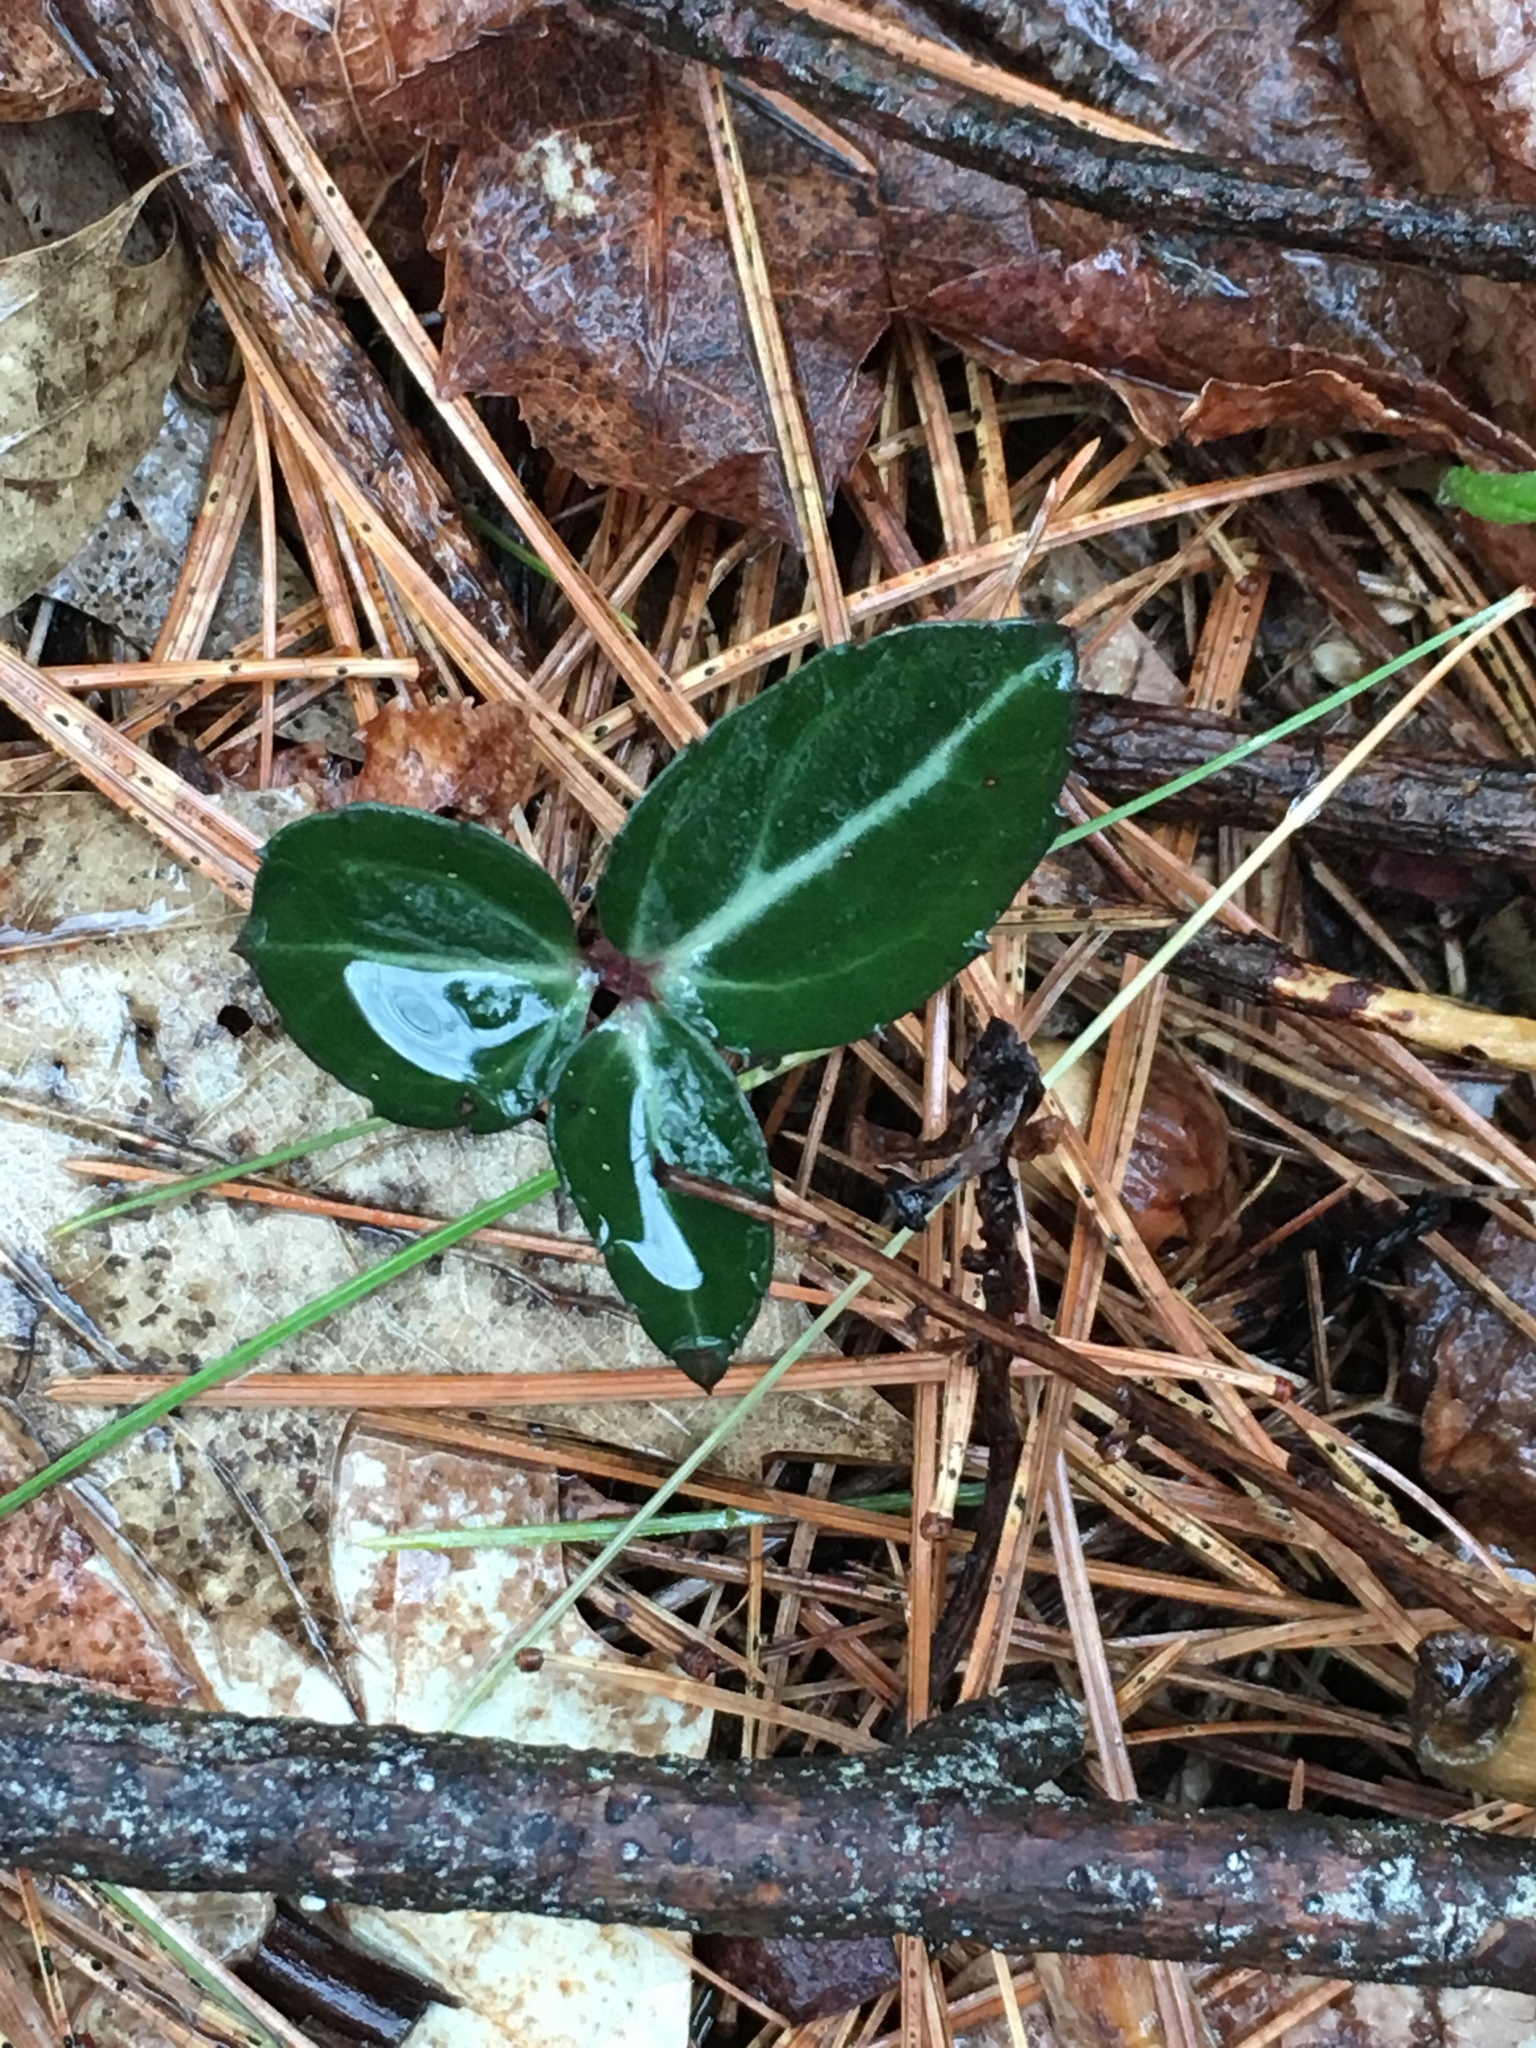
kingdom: Plantae
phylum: Tracheophyta
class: Magnoliopsida
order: Ericales
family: Ericaceae
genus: Chimaphila
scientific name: Chimaphila maculata
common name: Spotted pipsissewa
